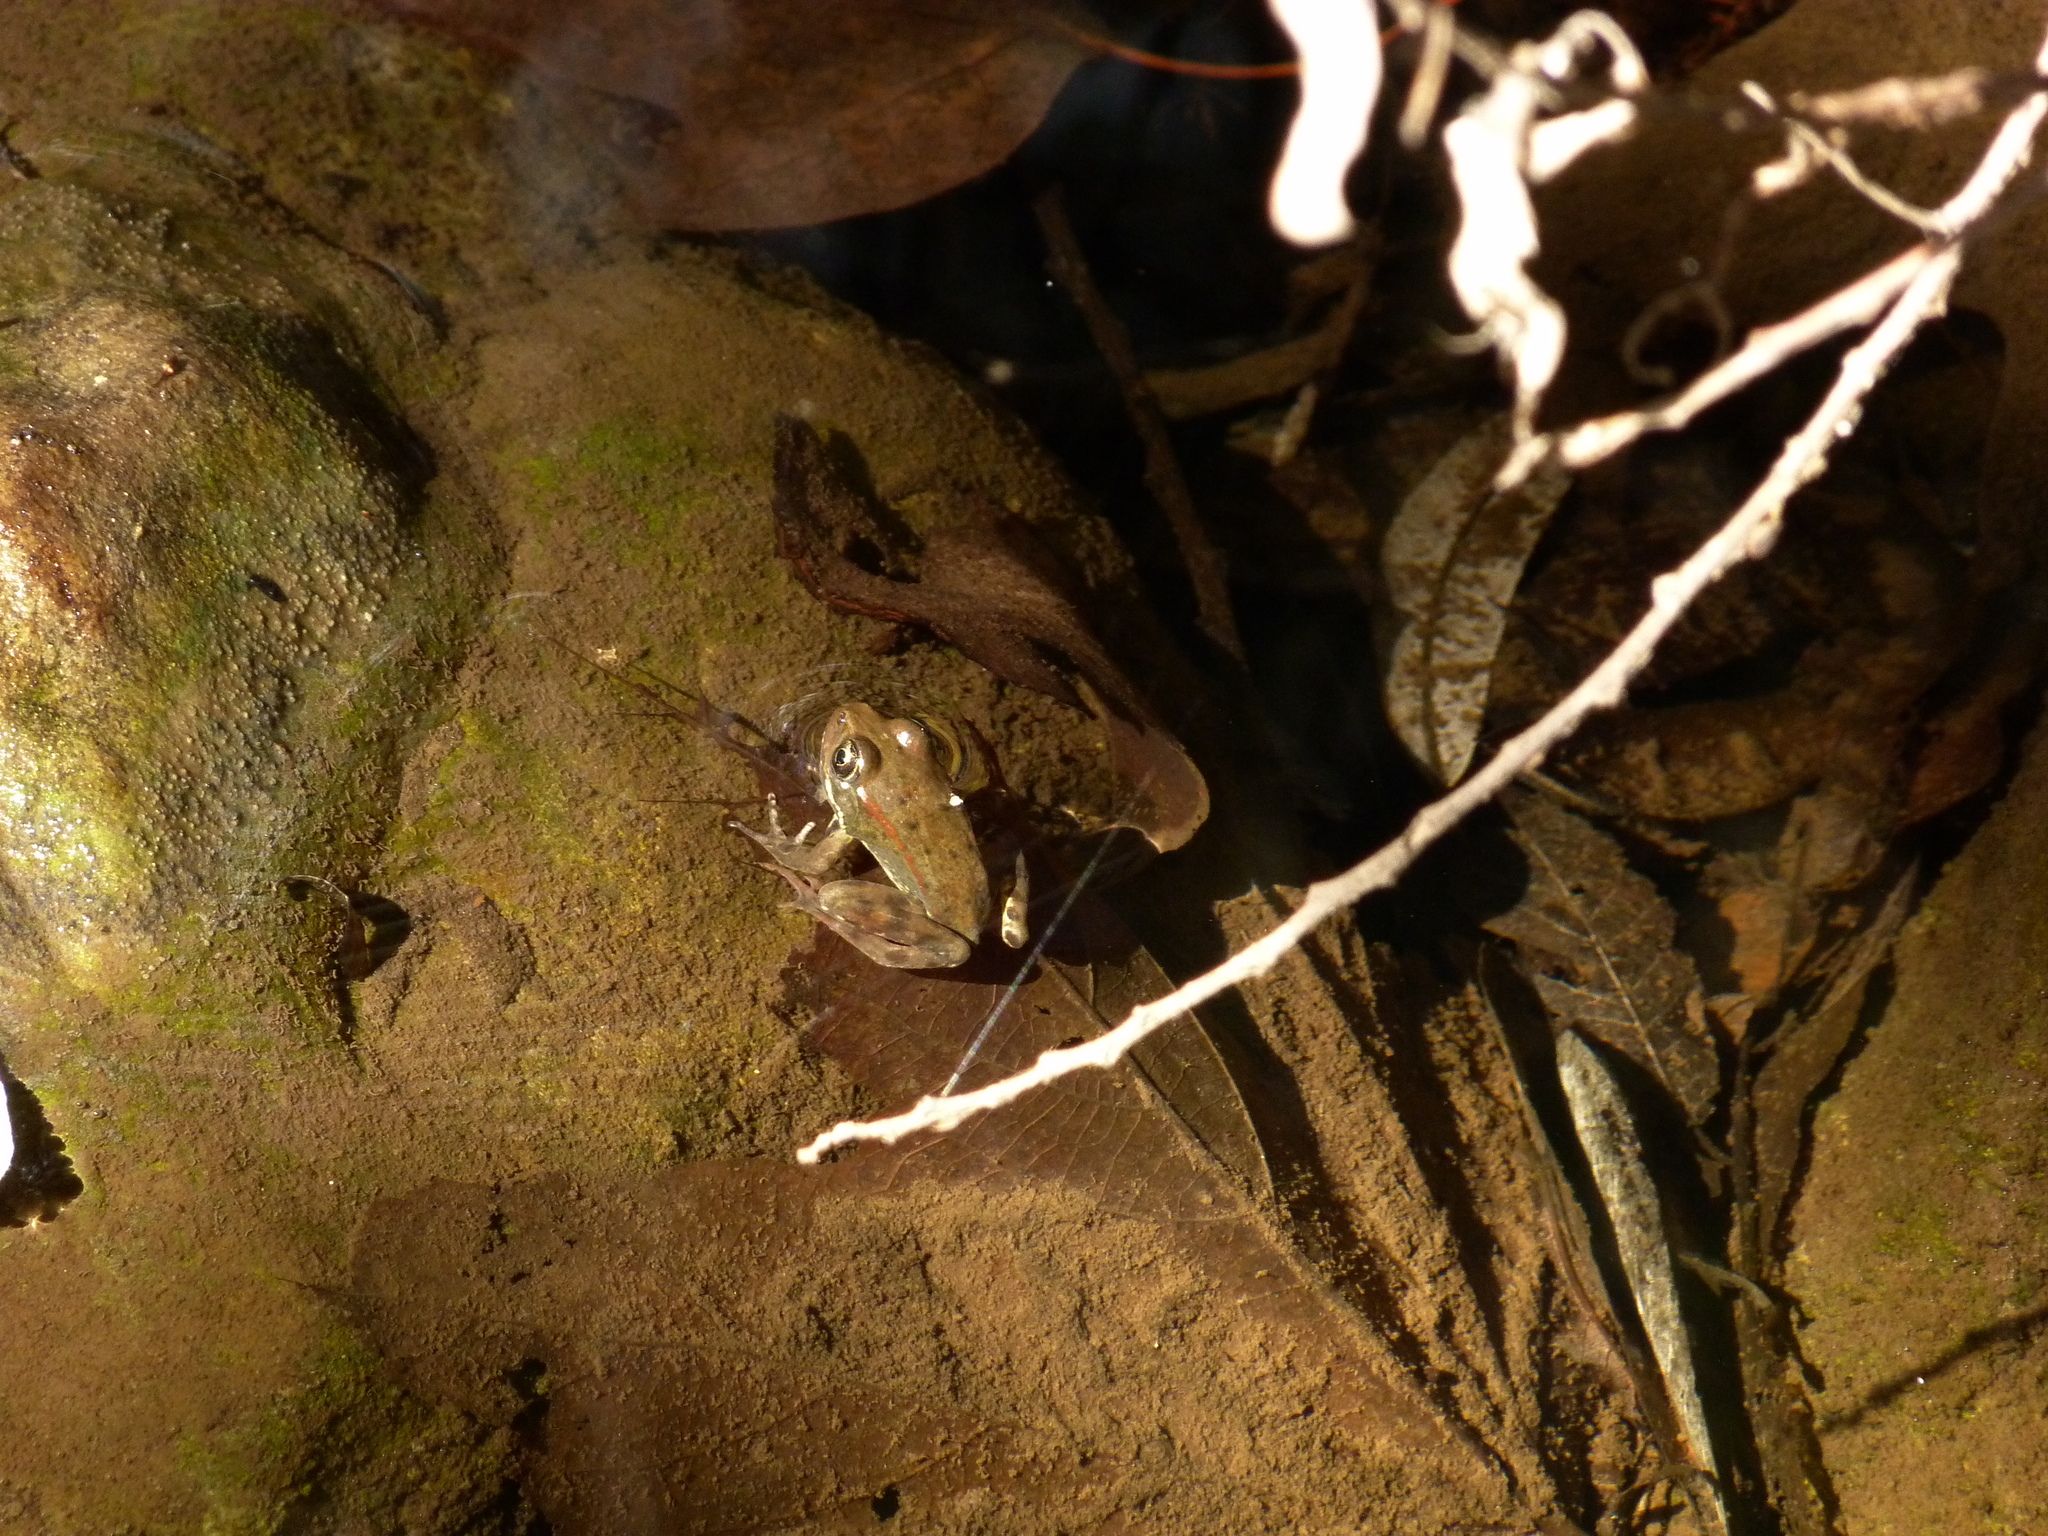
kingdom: Animalia
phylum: Chordata
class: Amphibia
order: Anura
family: Ranidae
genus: Rana
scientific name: Rana draytonii
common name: California red-legged frog
